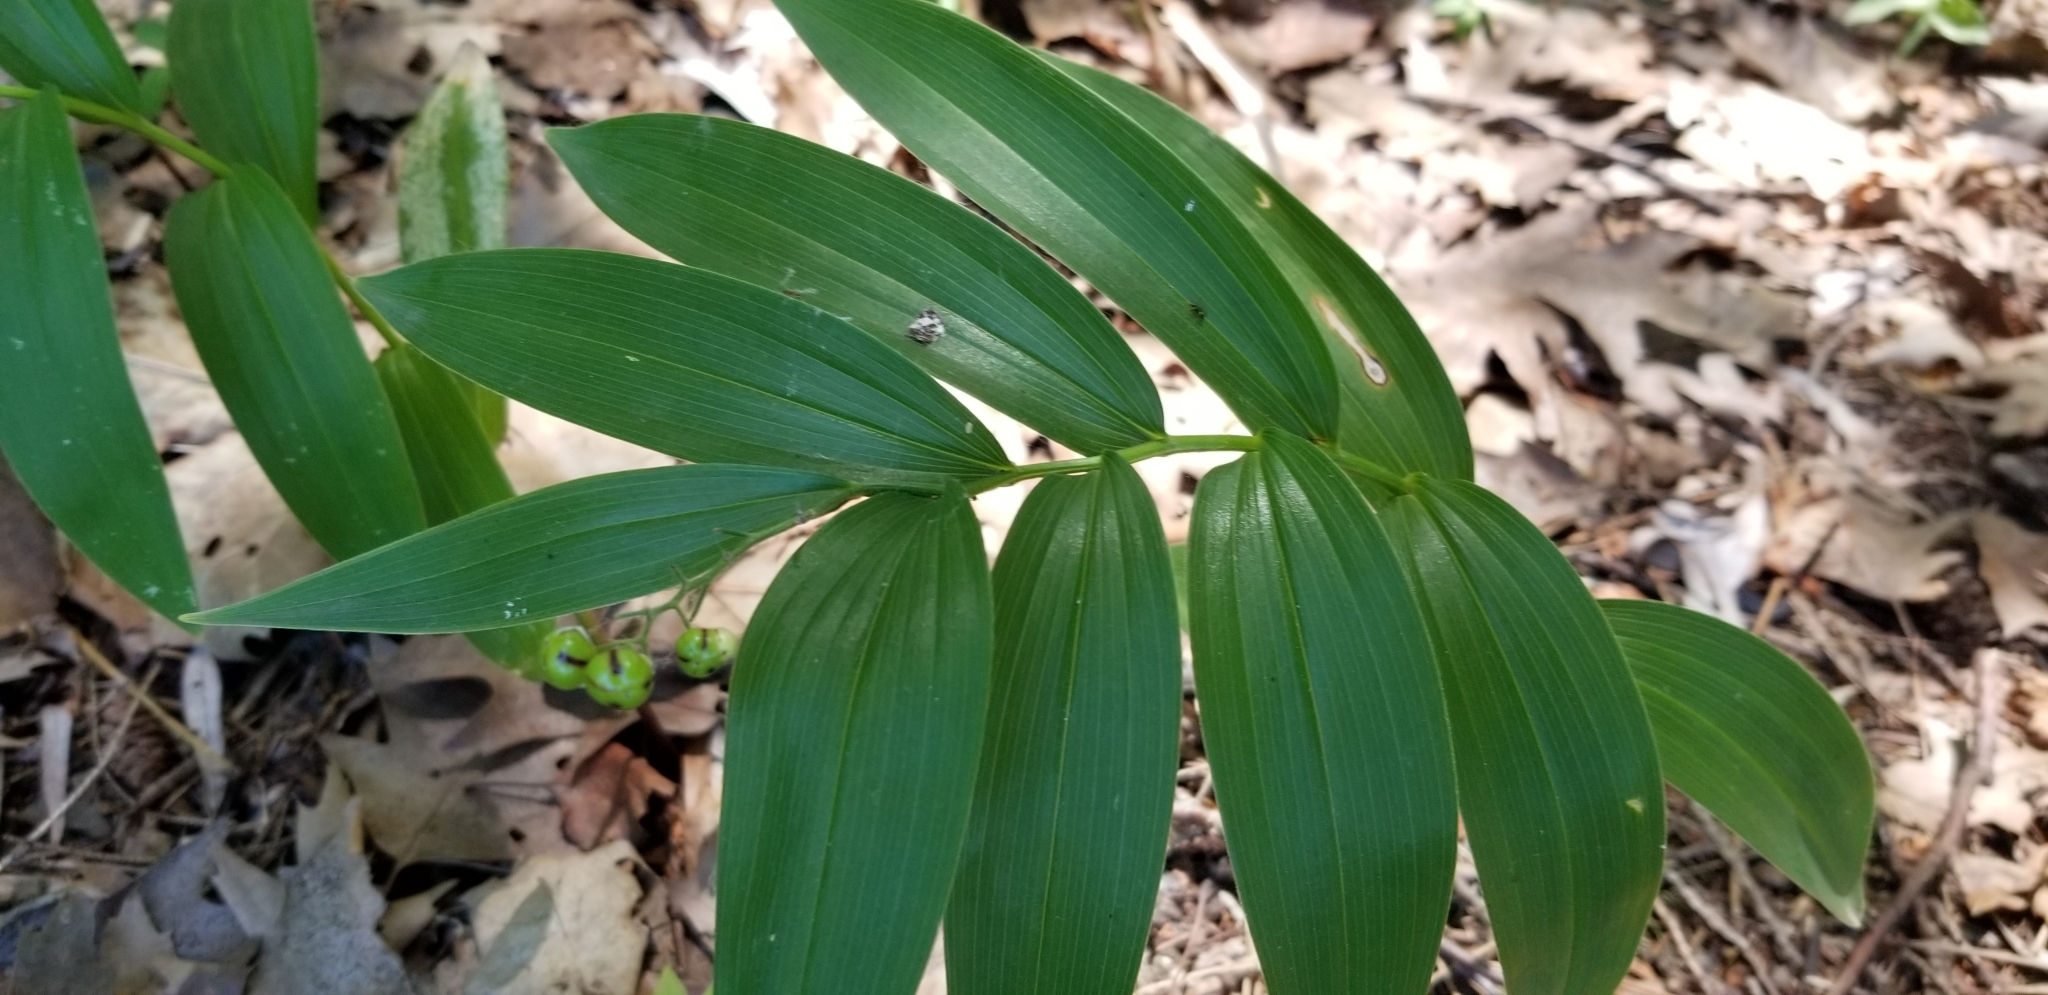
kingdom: Plantae
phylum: Tracheophyta
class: Liliopsida
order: Asparagales
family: Asparagaceae
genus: Maianthemum
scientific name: Maianthemum stellatum
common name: Little false solomon's seal
